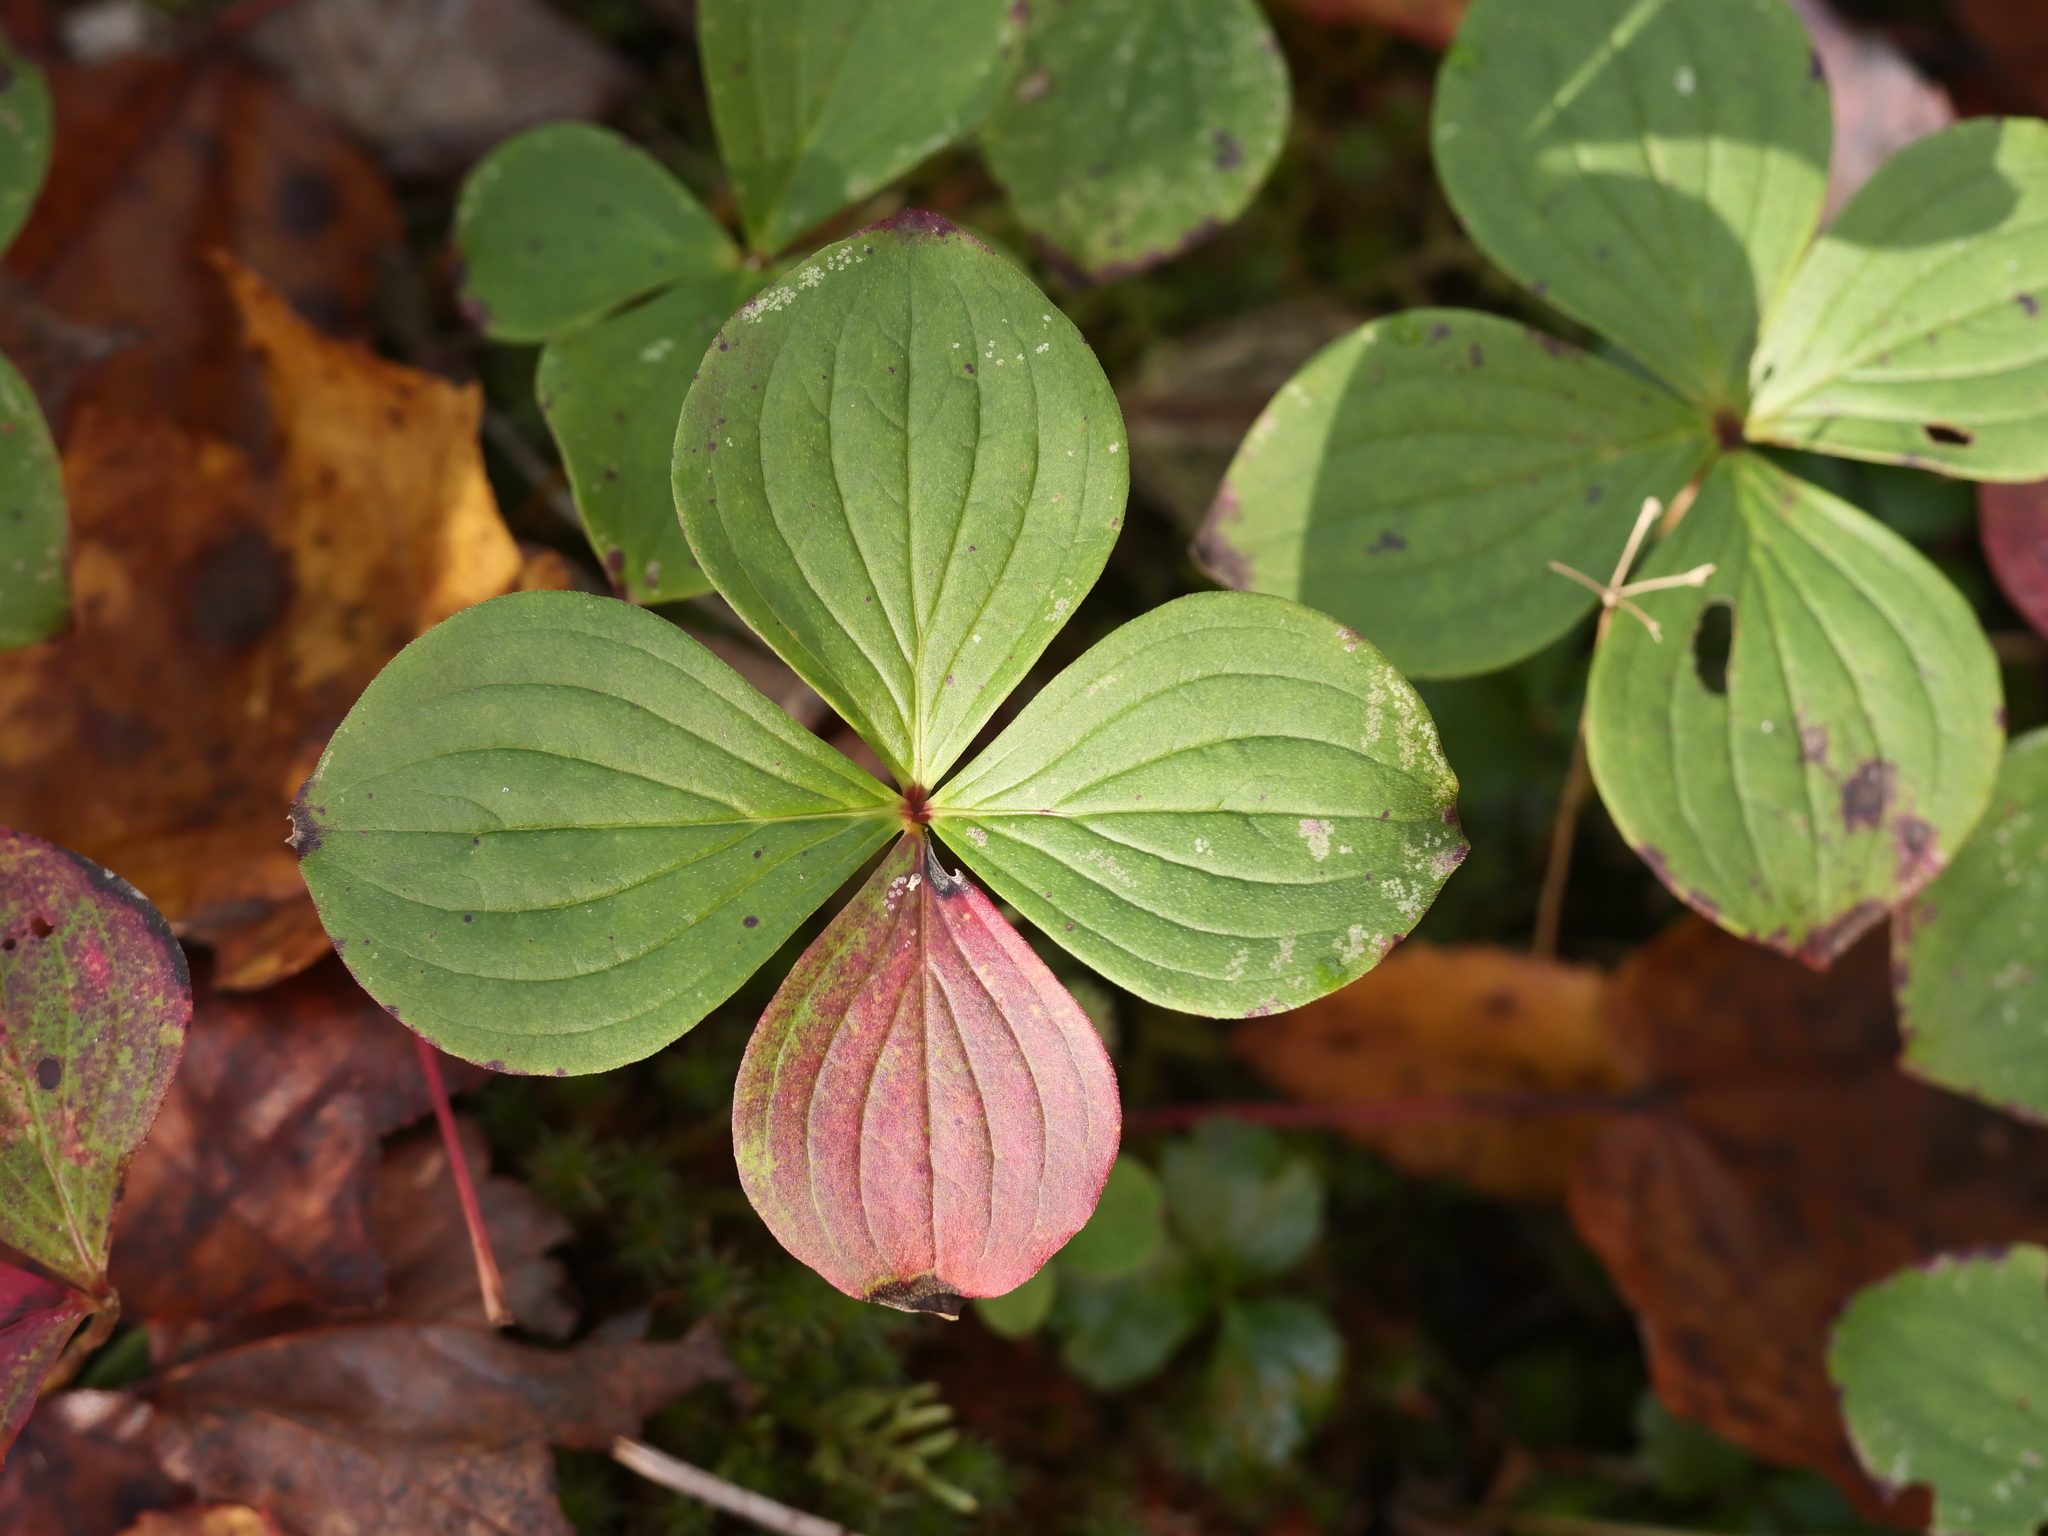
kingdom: Plantae
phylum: Tracheophyta
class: Magnoliopsida
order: Cornales
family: Cornaceae
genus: Cornus
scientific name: Cornus canadensis
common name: Creeping dogwood
